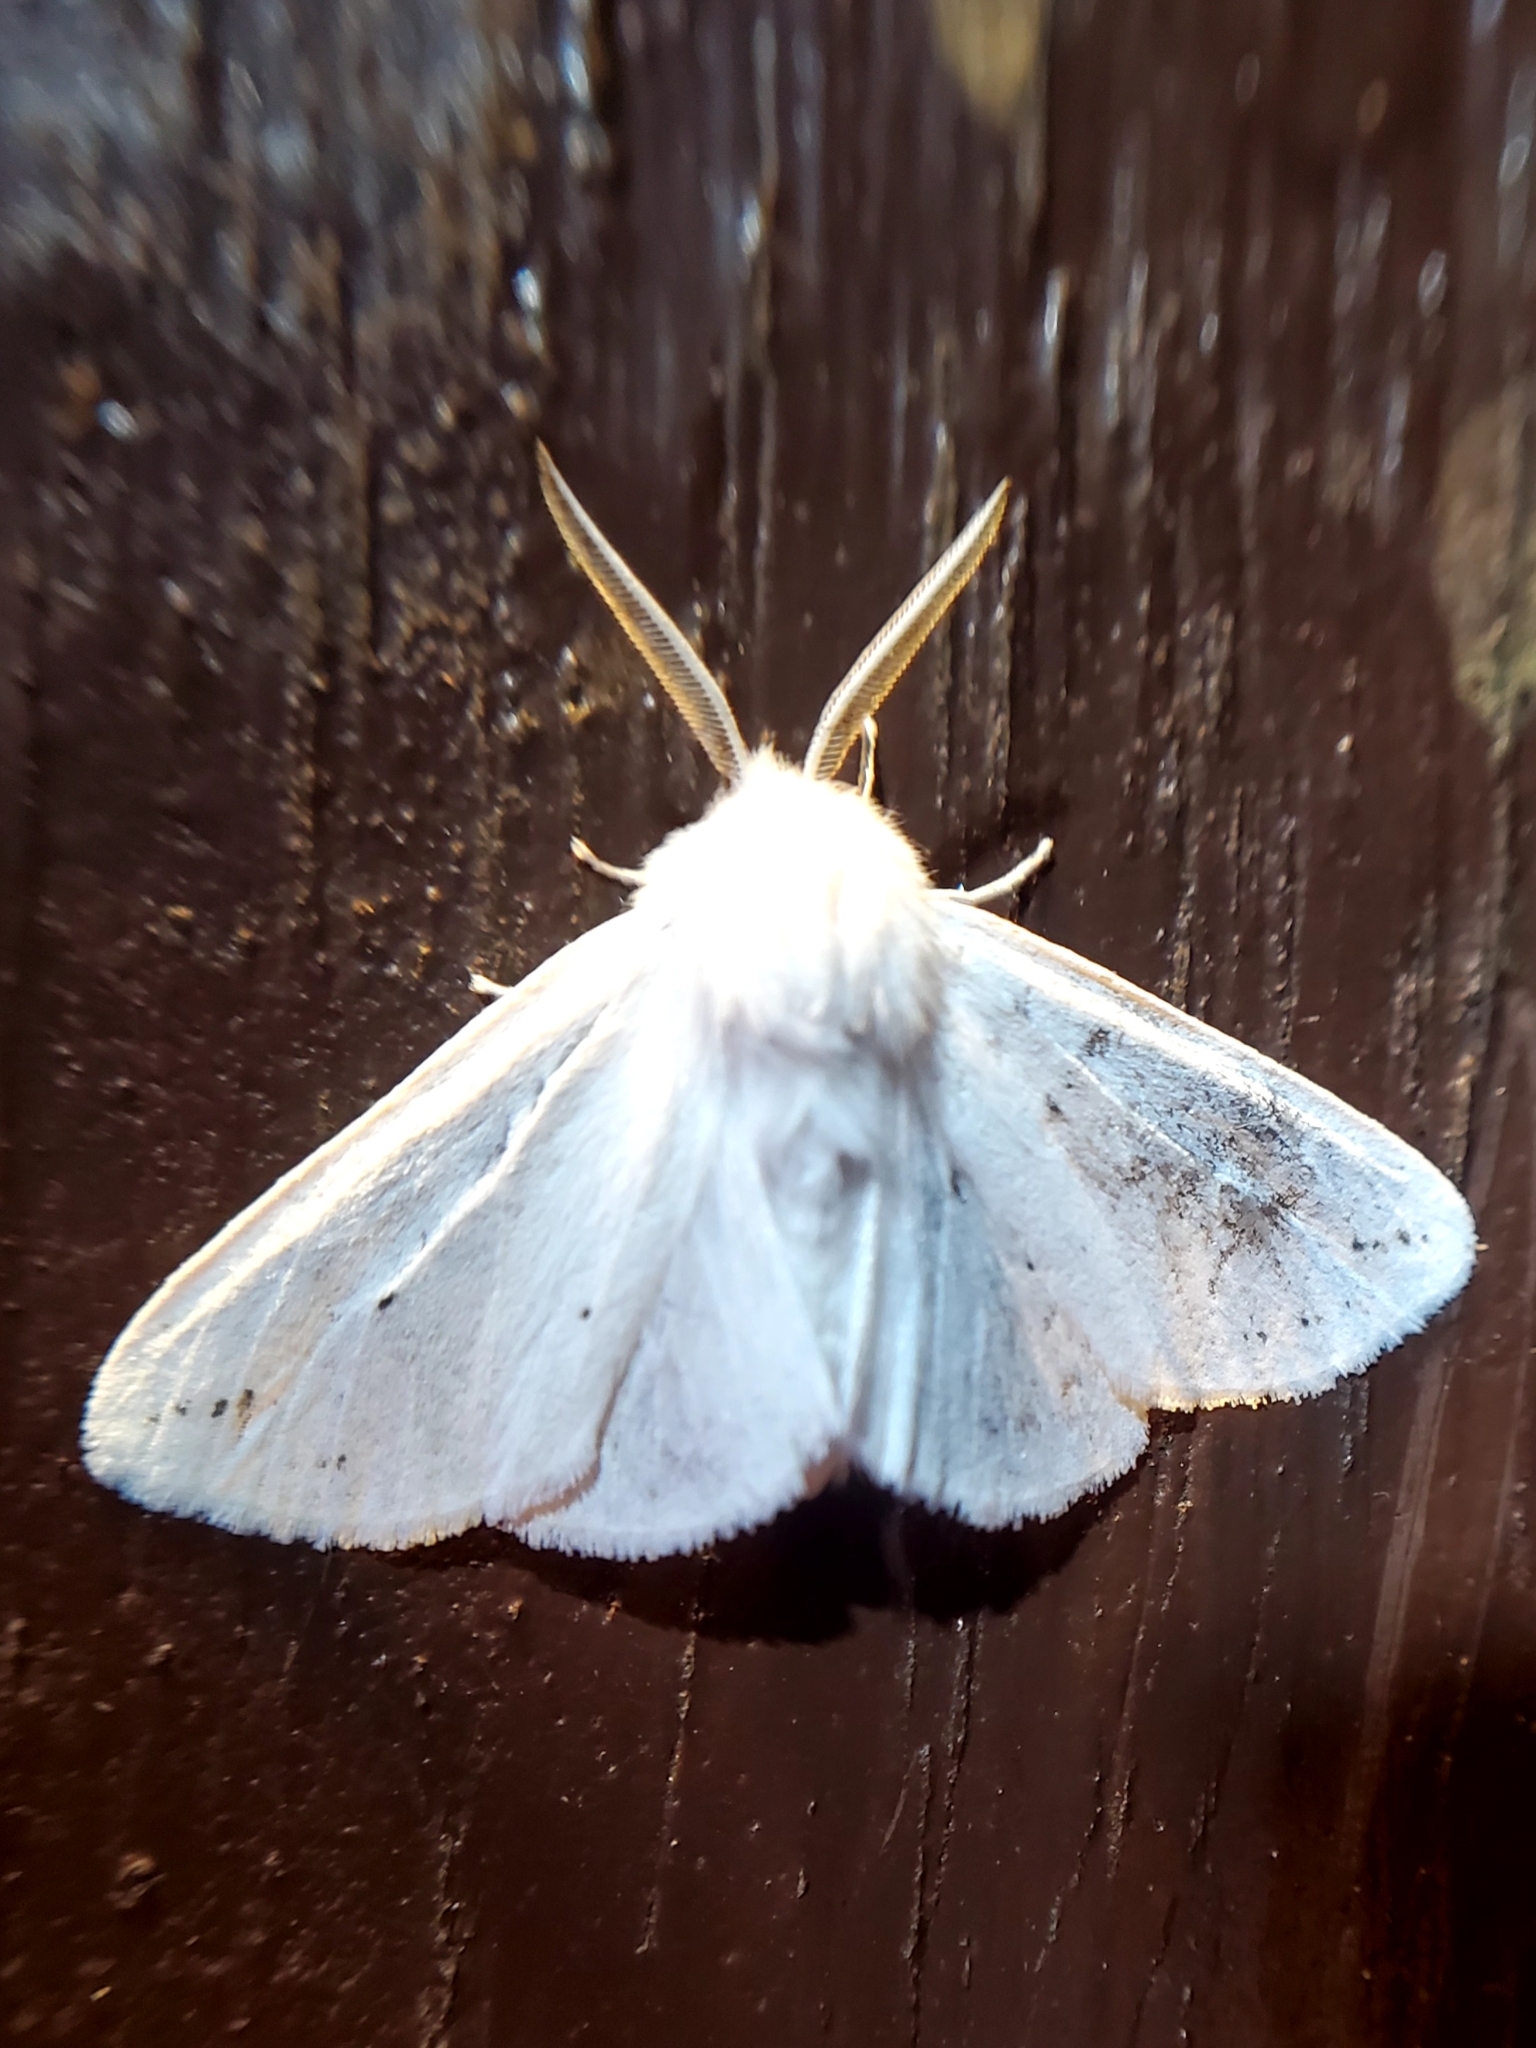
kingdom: Animalia
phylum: Arthropoda
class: Insecta
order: Lepidoptera
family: Erebidae
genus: Spilosoma
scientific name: Spilosoma congrua
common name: Agreeable tiger moth
